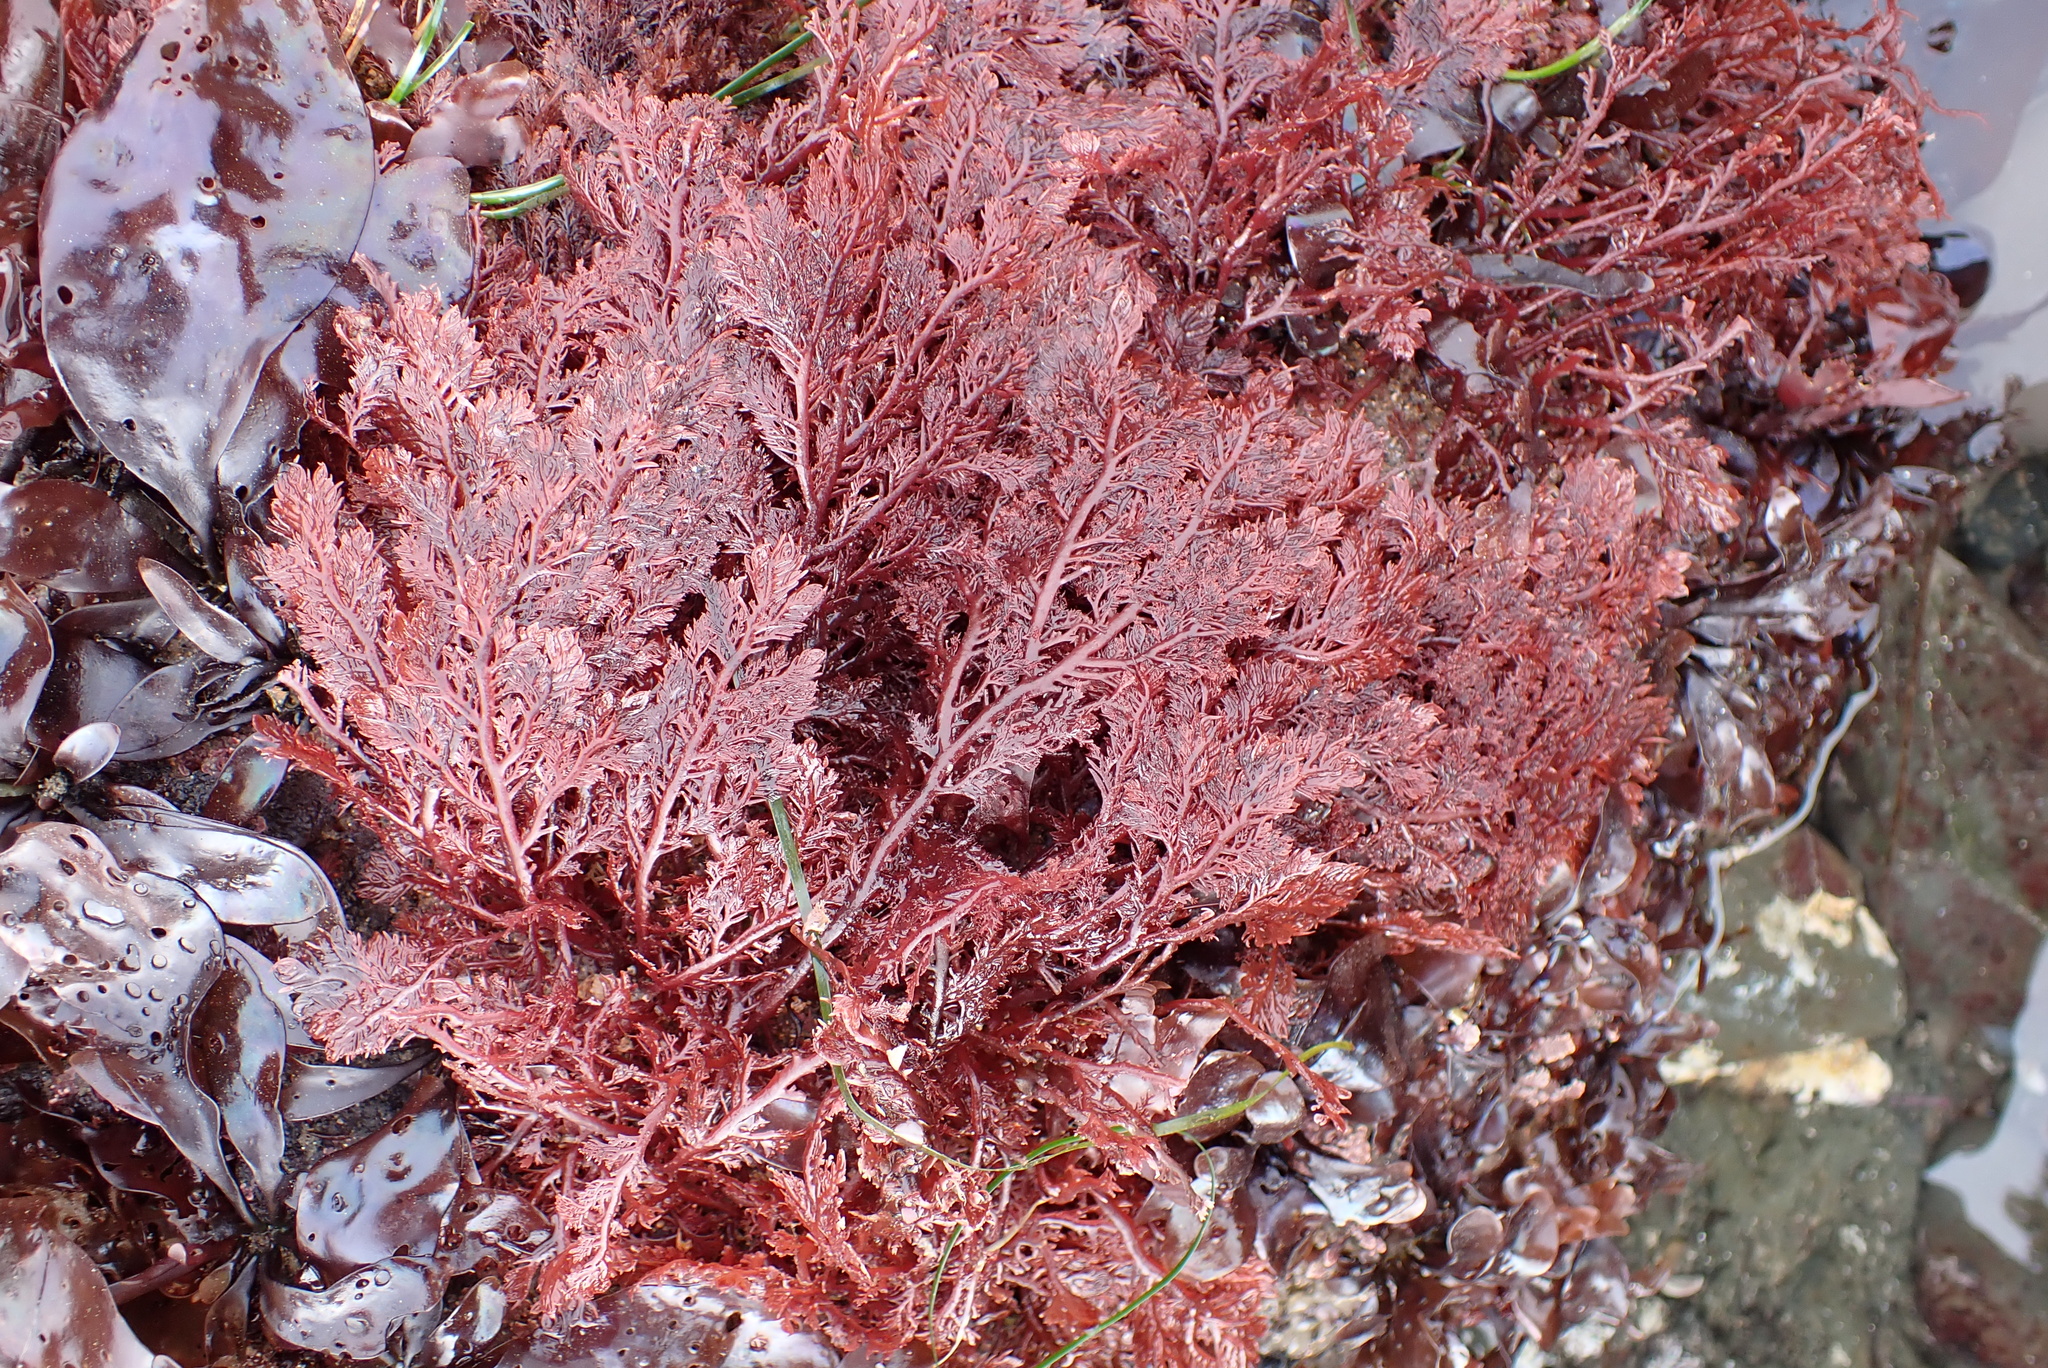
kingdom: Plantae
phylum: Rhodophyta
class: Florideophyceae
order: Plocamiales
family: Plocamiaceae
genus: Plocamium
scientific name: Plocamium cartilagineum
